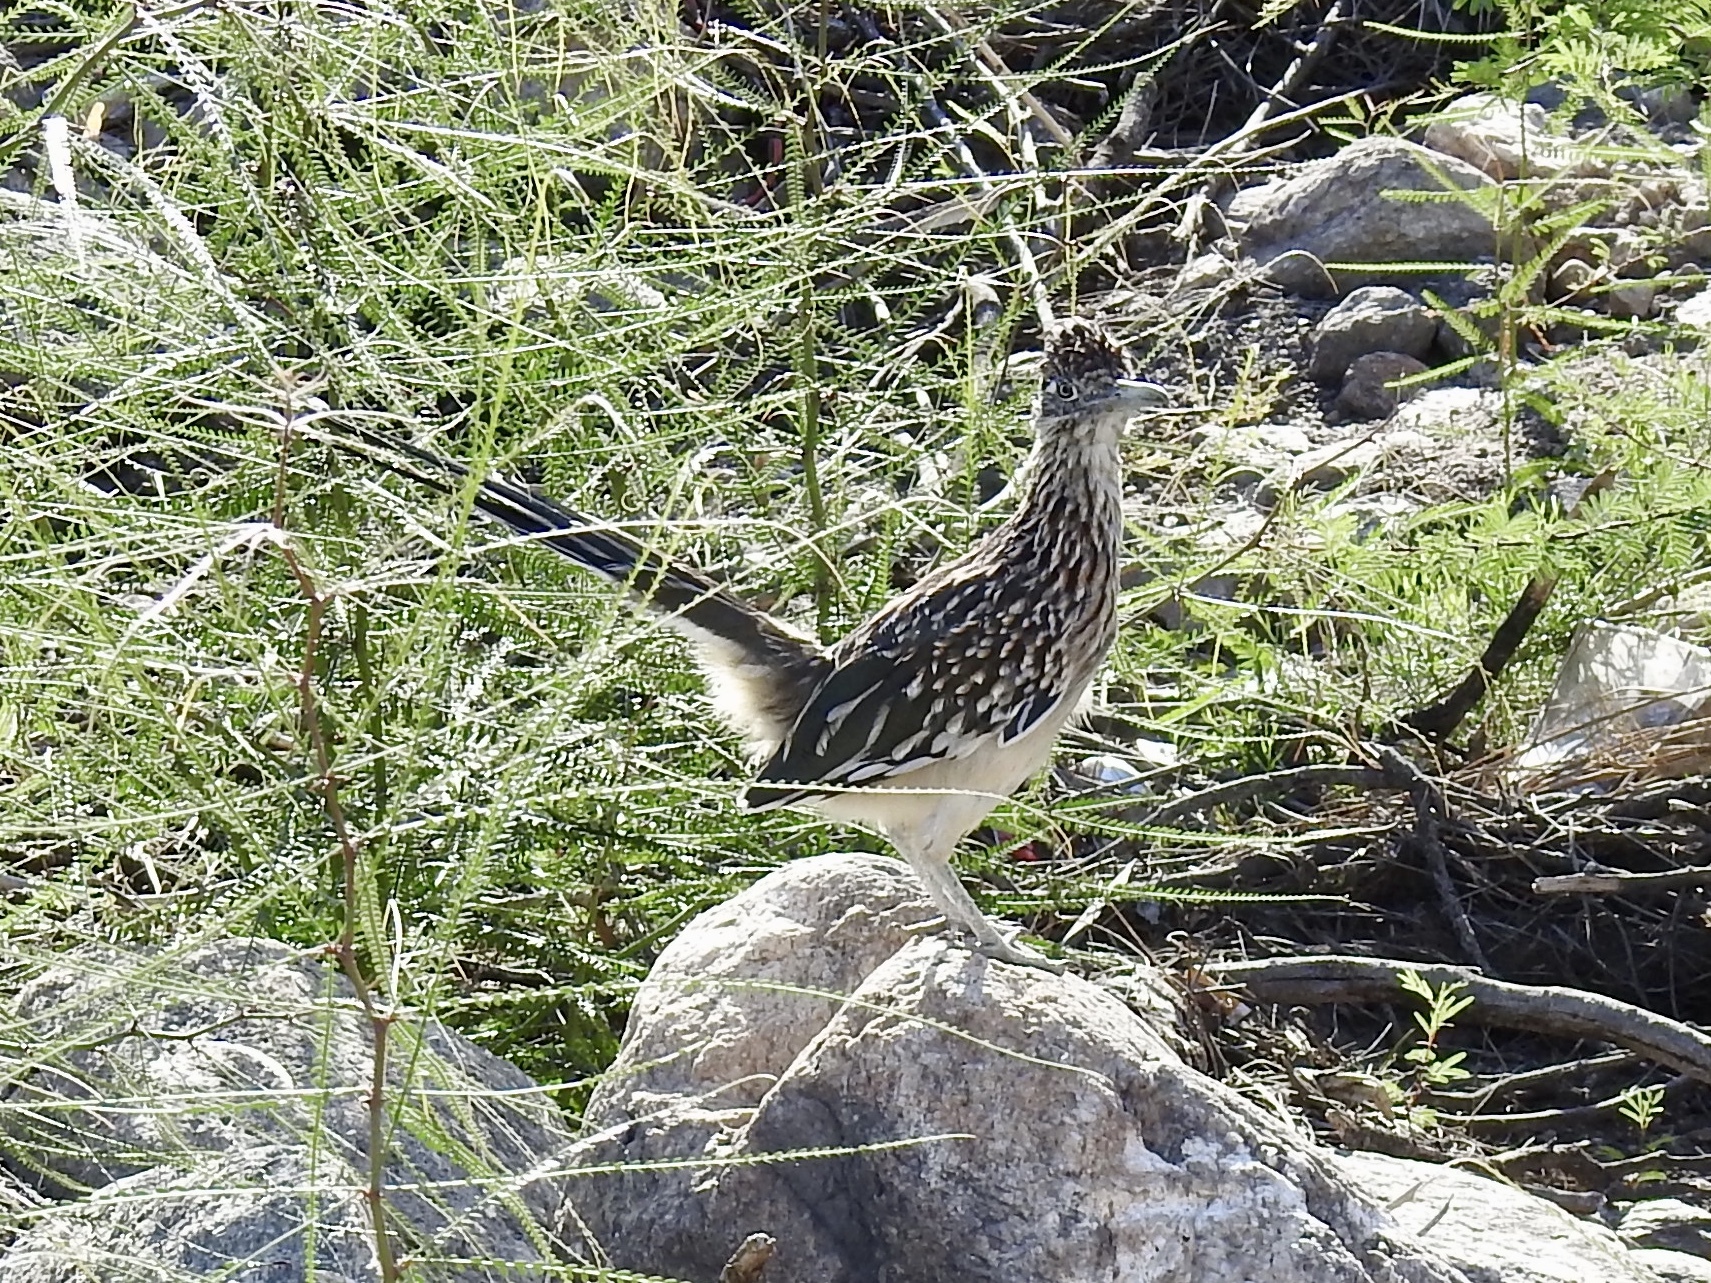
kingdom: Animalia
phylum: Chordata
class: Aves
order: Cuculiformes
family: Cuculidae
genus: Geococcyx
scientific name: Geococcyx californianus
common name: Greater roadrunner
